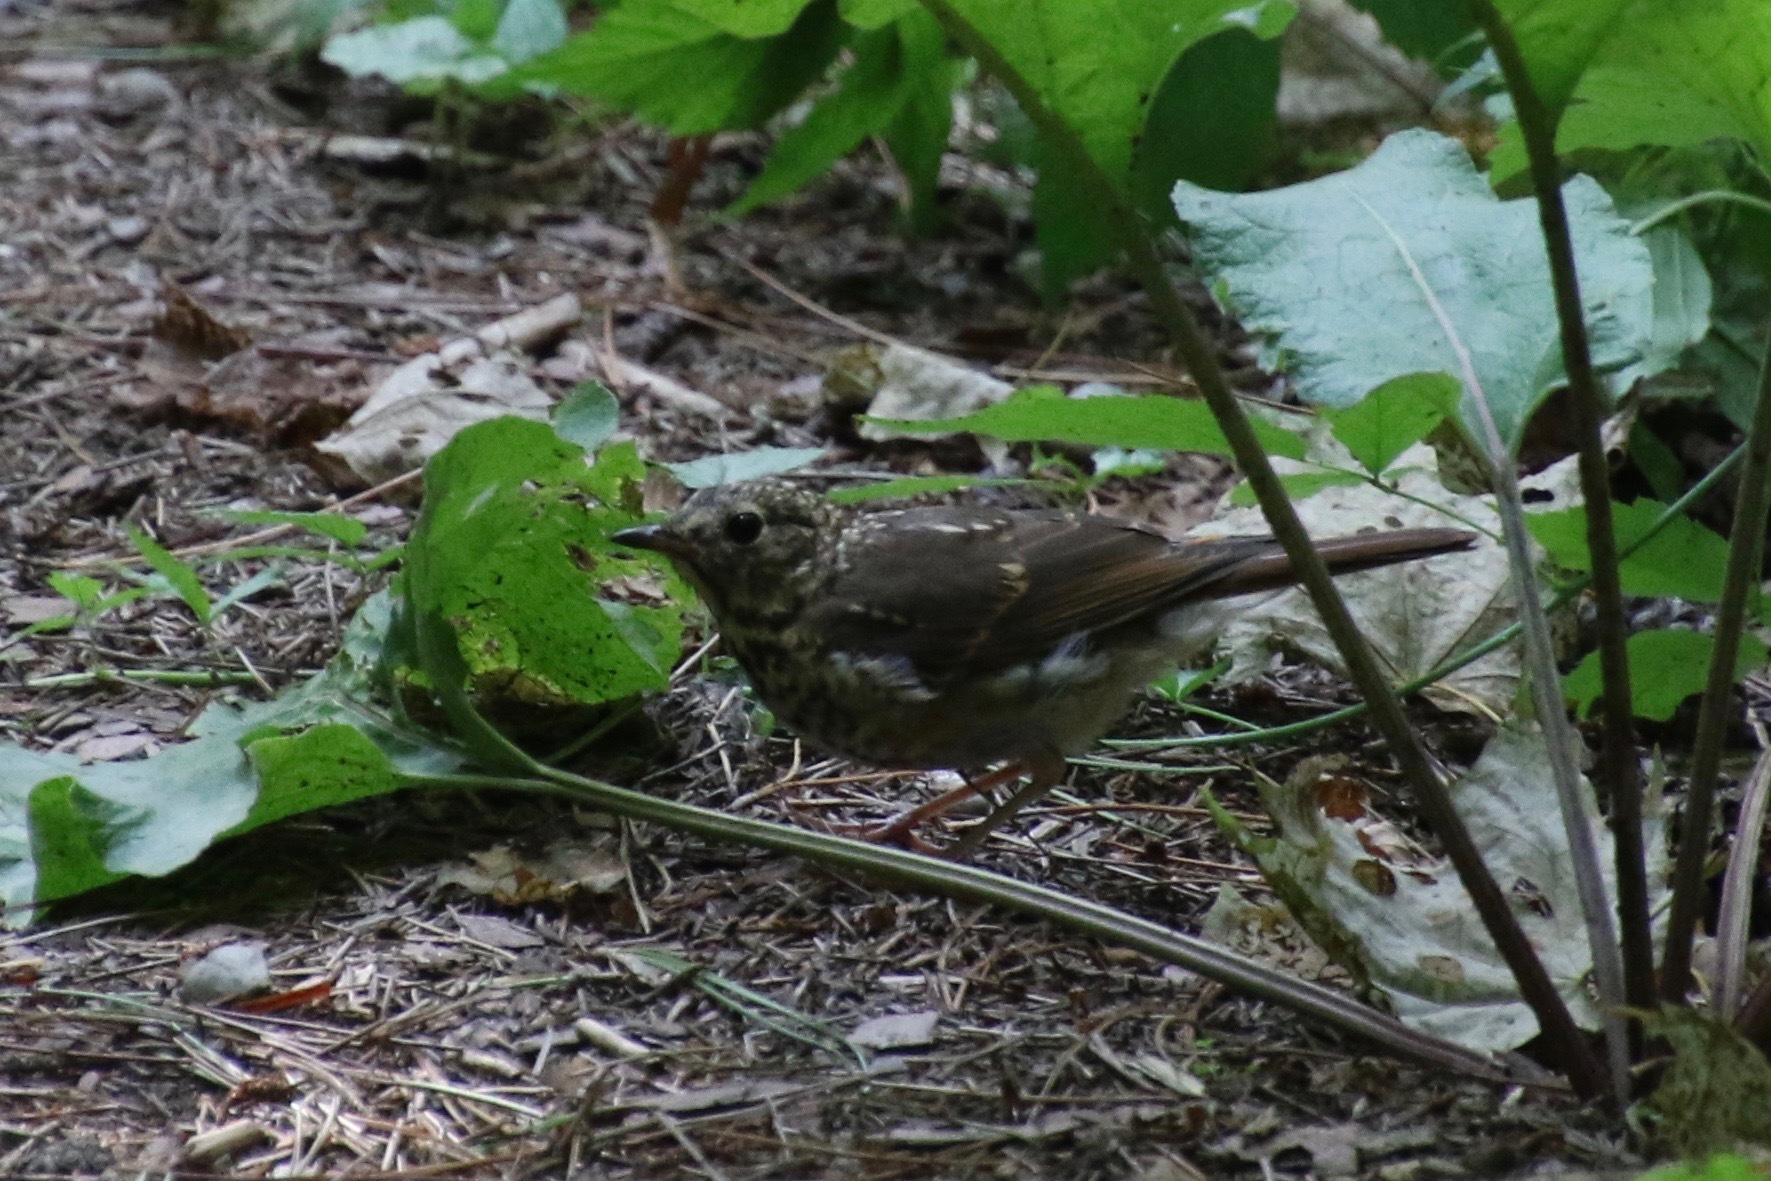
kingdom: Animalia
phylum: Chordata
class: Aves
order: Passeriformes
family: Turdidae
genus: Catharus
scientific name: Catharus guttatus
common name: Hermit thrush
